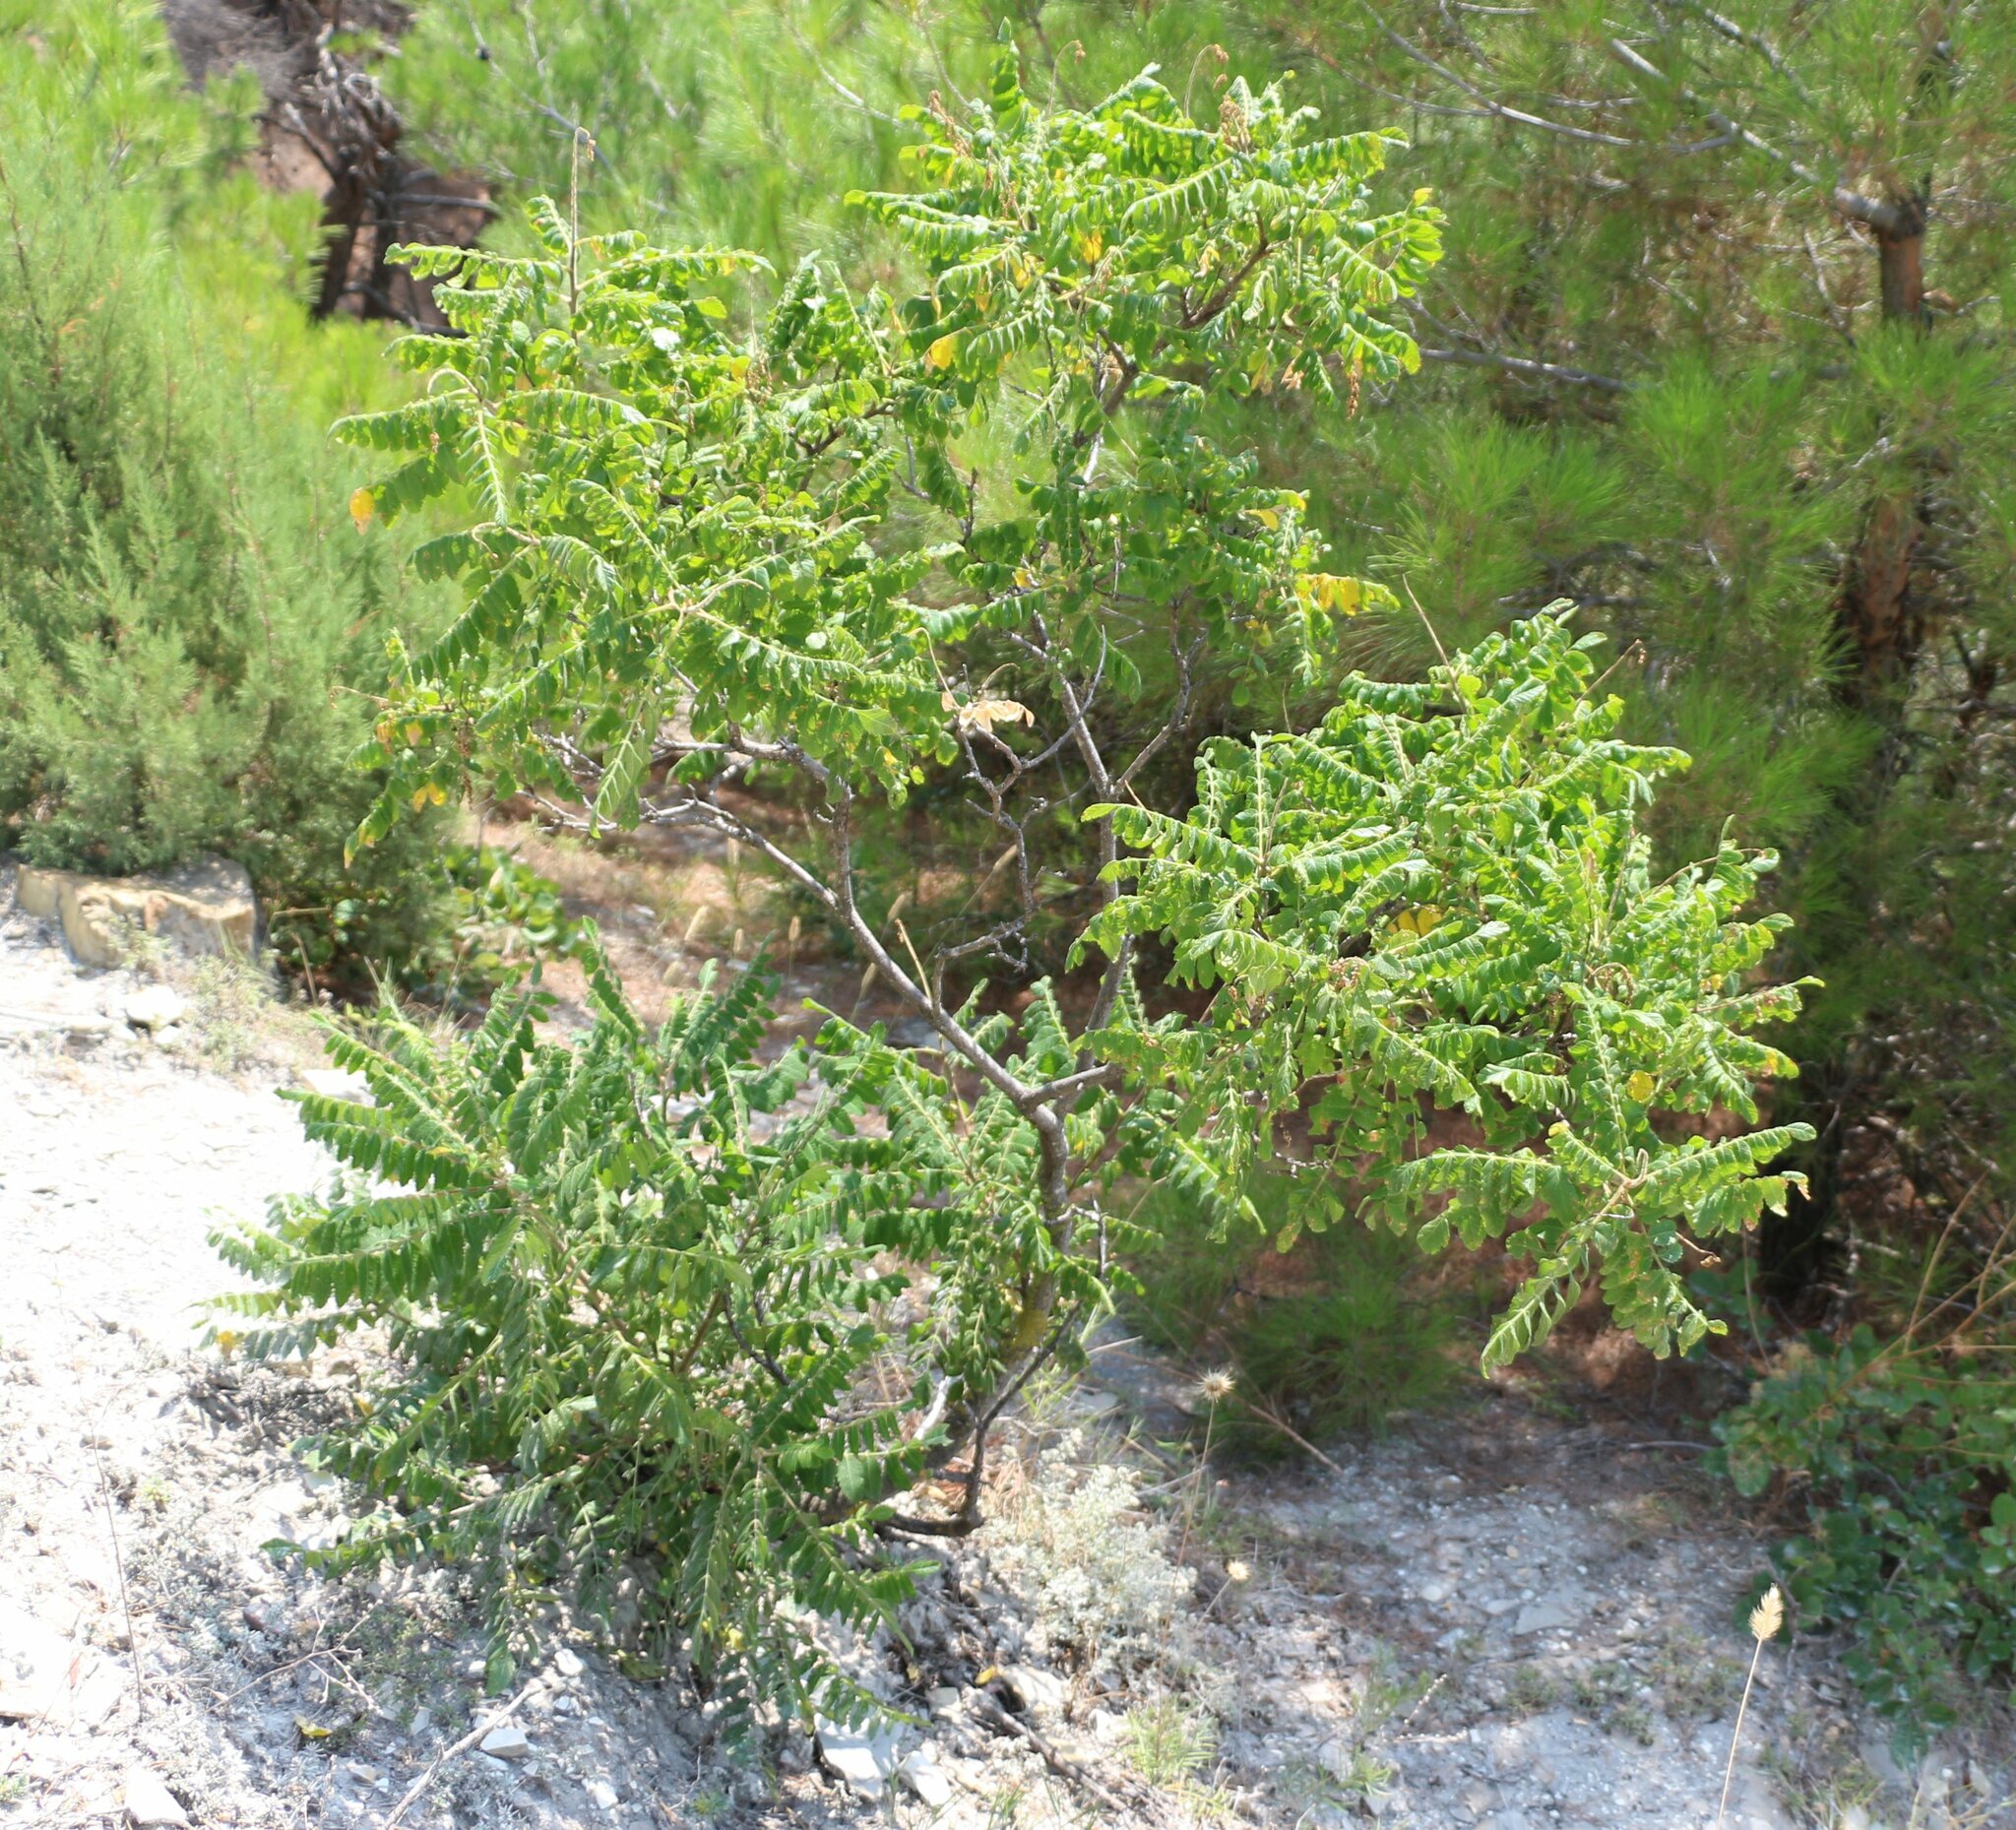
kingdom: Plantae
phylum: Tracheophyta
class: Magnoliopsida
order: Sapindales
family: Anacardiaceae
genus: Rhus
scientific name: Rhus coriaria
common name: Tanner's sumach
